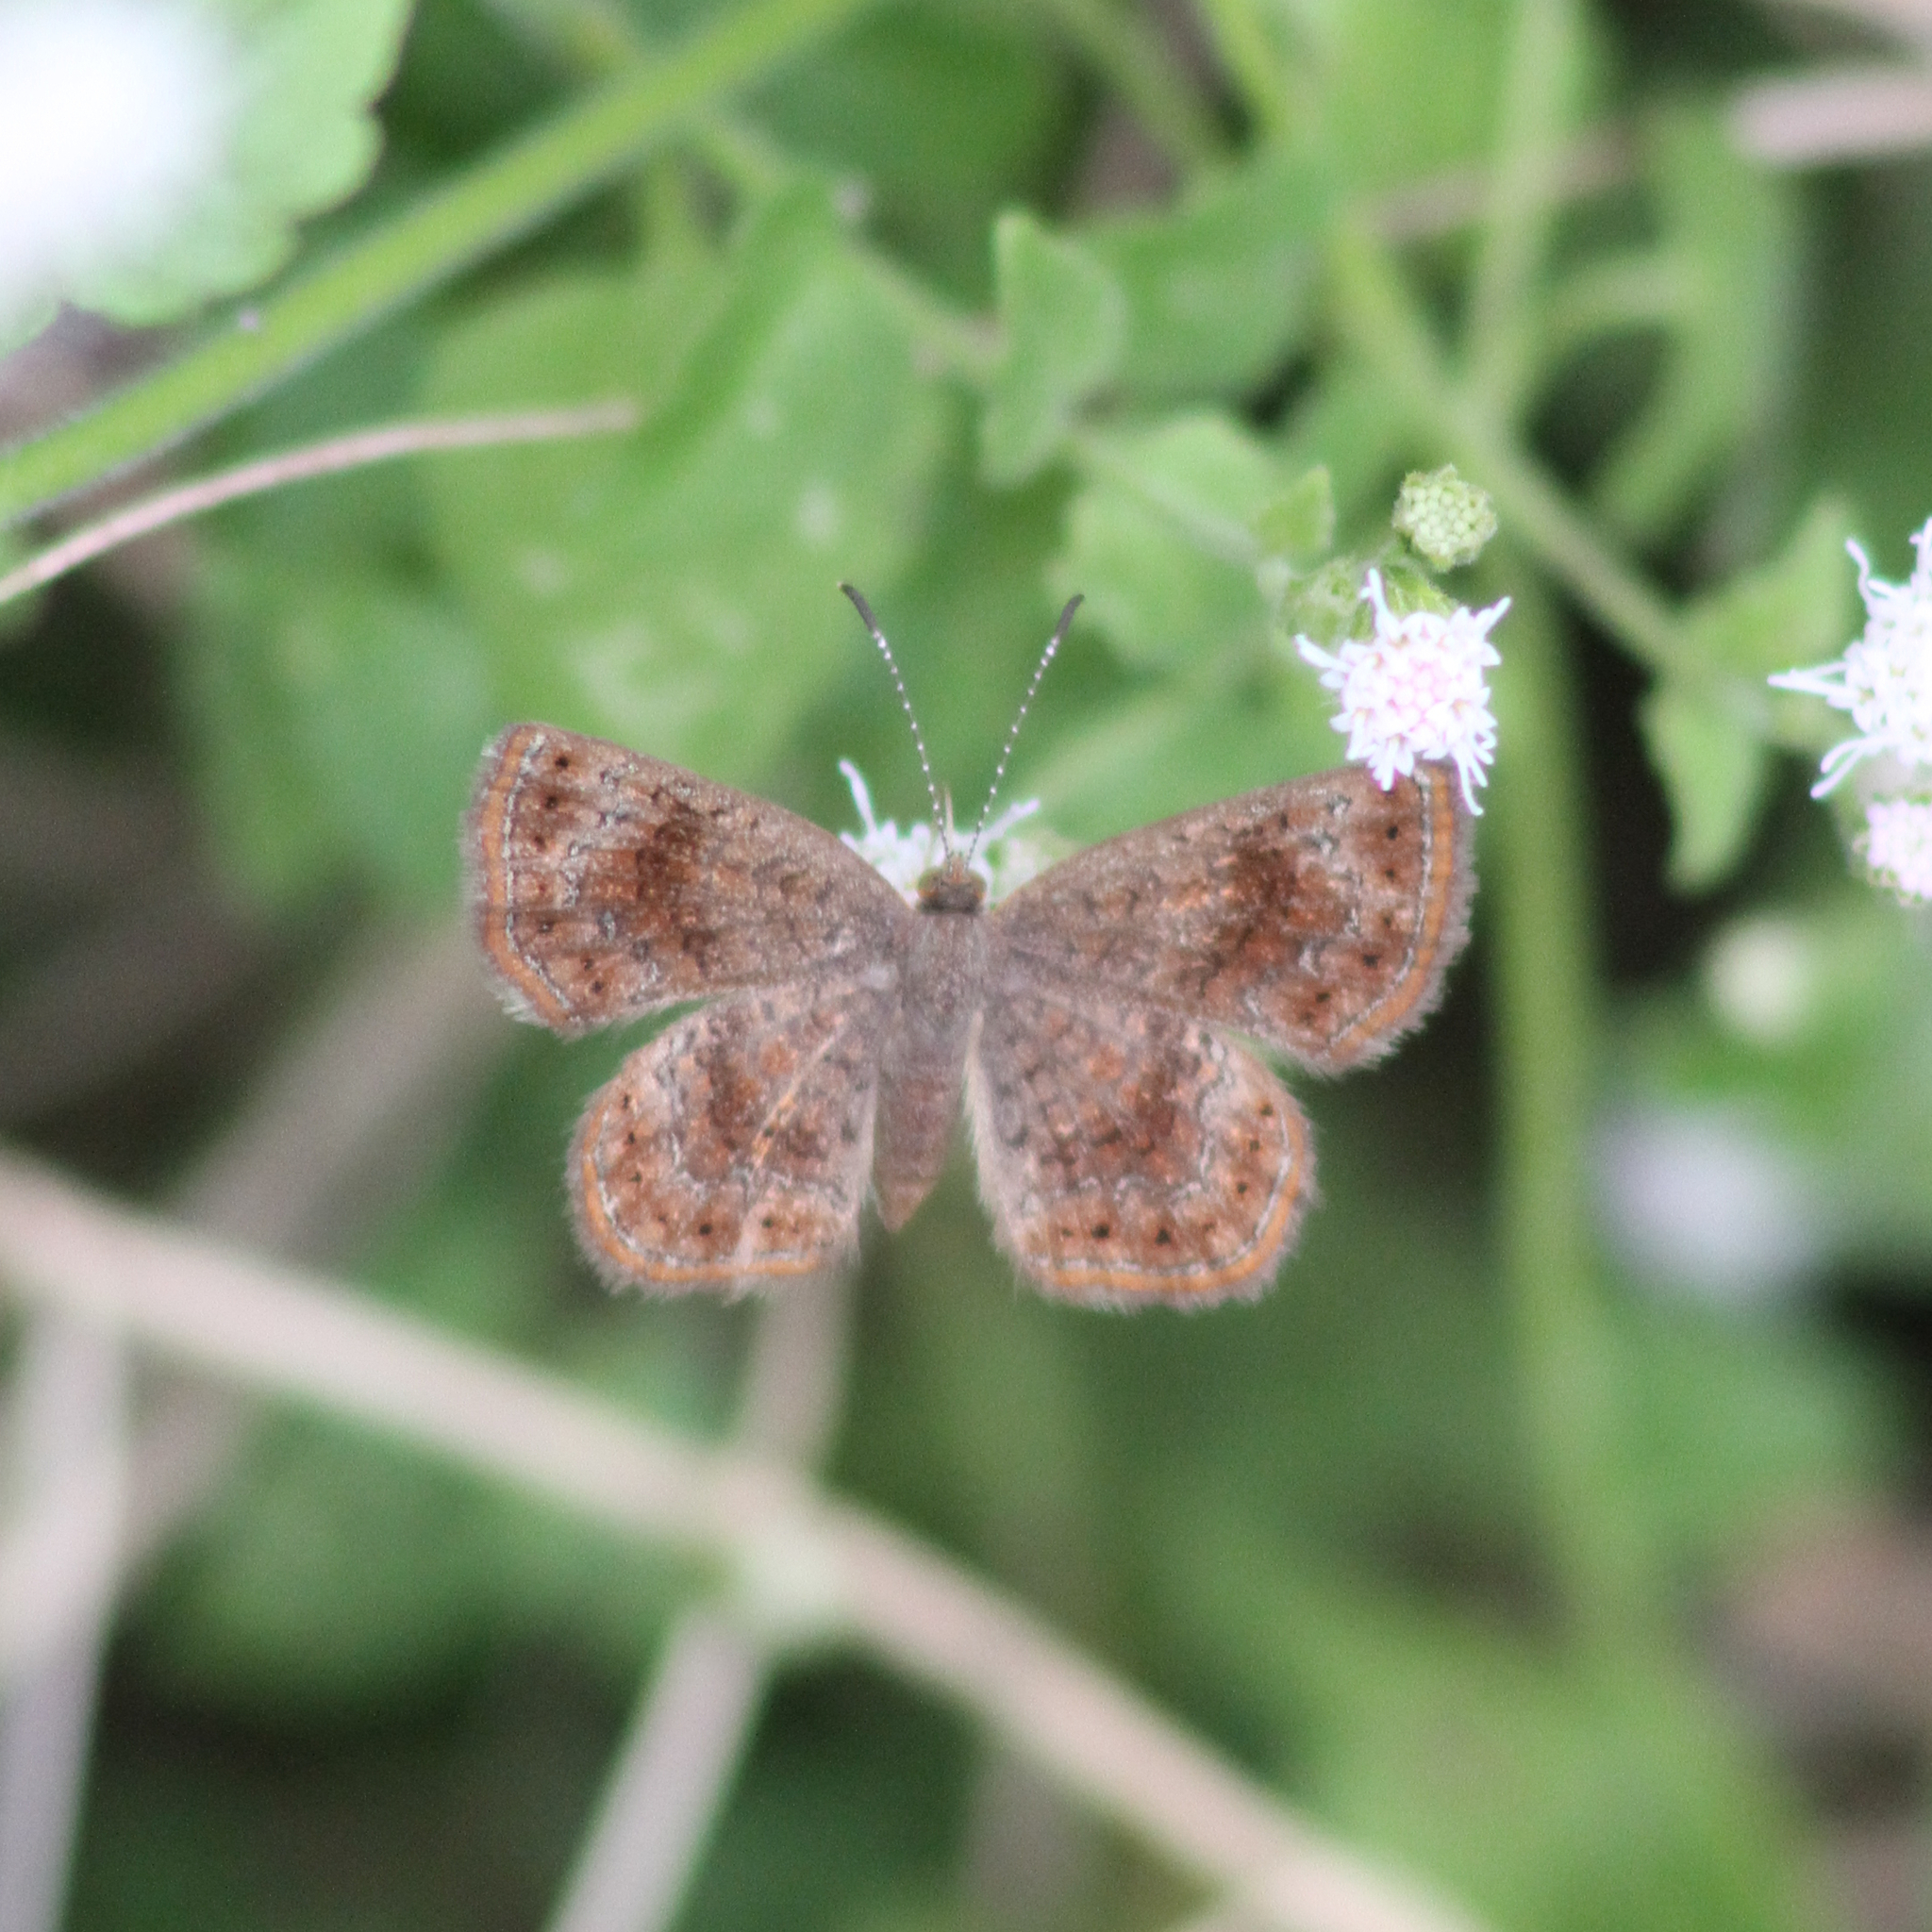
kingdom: Animalia
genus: Calephelis
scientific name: Calephelis perditalis
